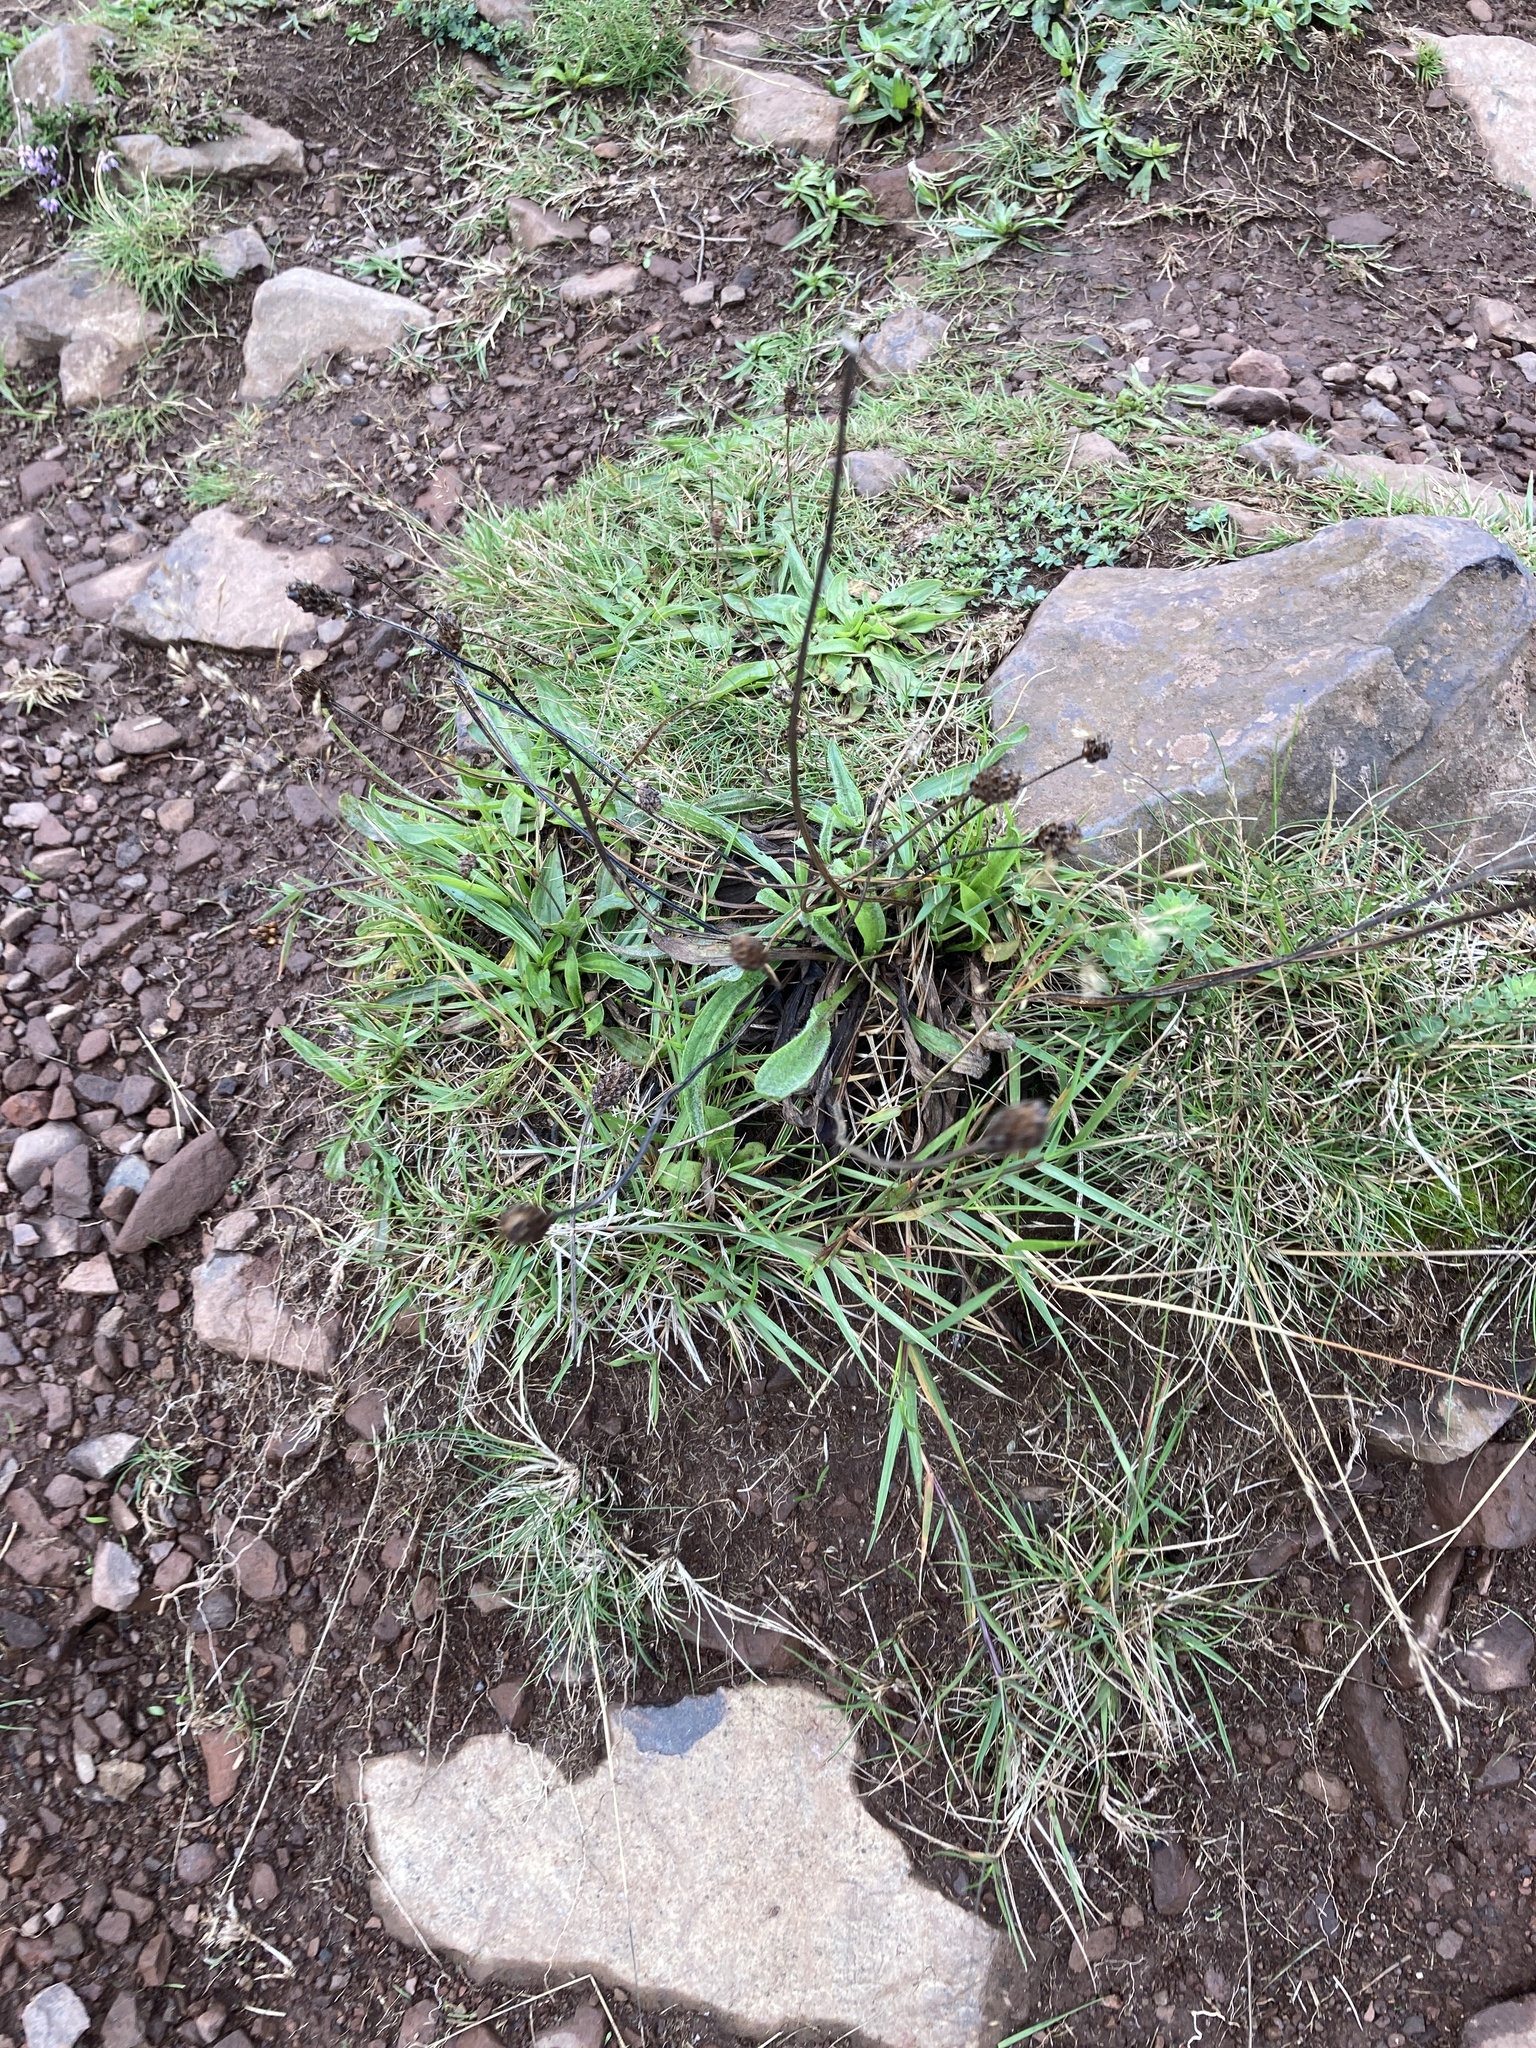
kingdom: Plantae
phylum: Tracheophyta
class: Magnoliopsida
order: Lamiales
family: Plantaginaceae
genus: Plantago
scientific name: Plantago lanceolata
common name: Ribwort plantain
